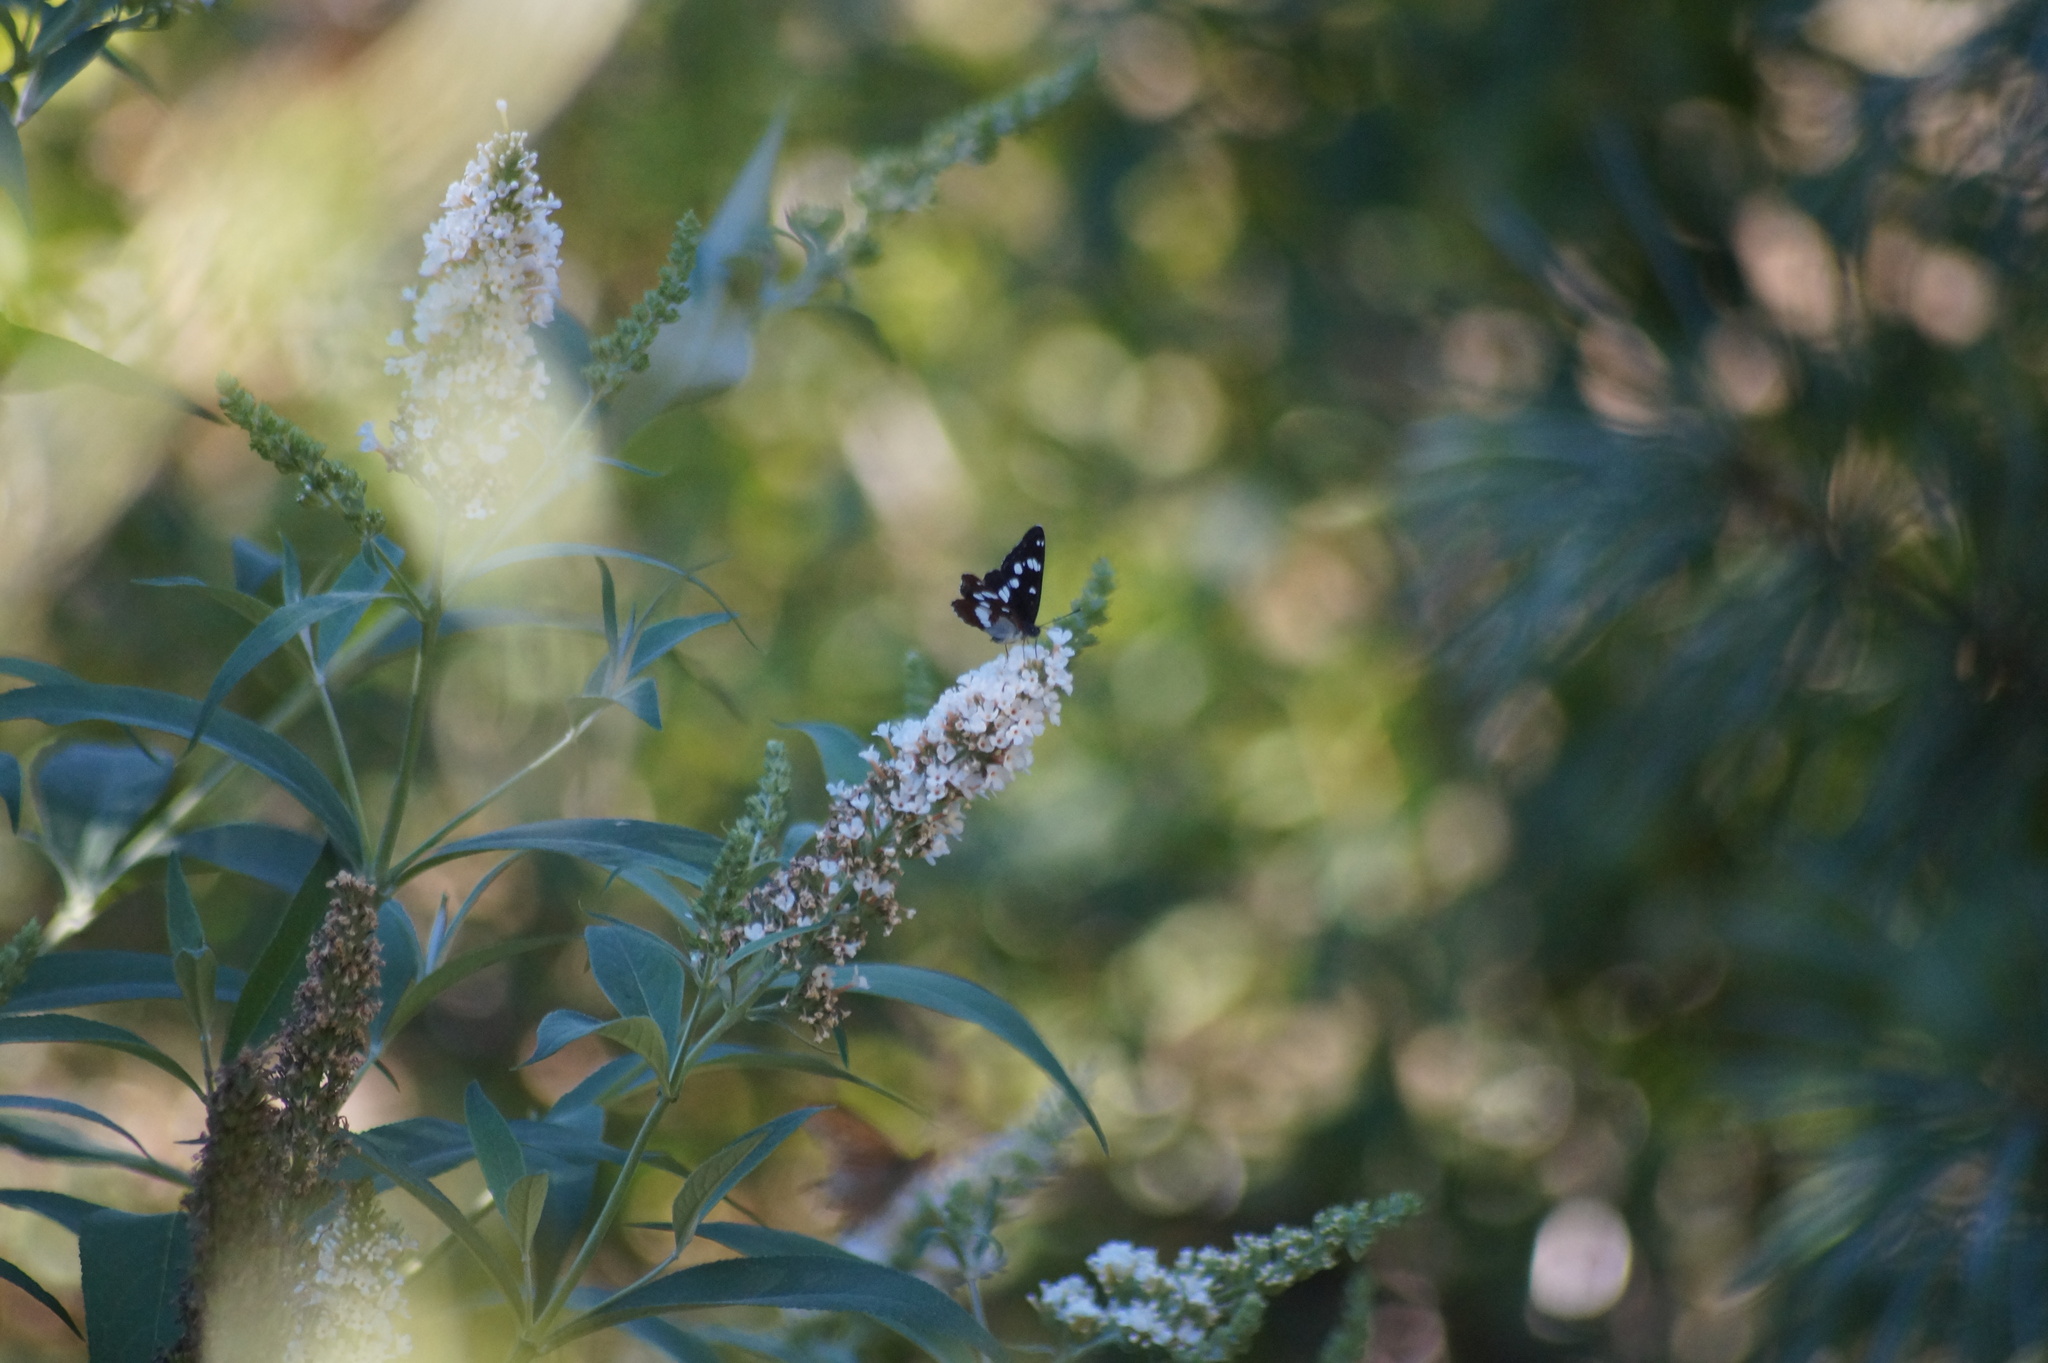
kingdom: Animalia
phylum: Arthropoda
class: Insecta
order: Lepidoptera
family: Nymphalidae
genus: Limenitis
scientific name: Limenitis reducta
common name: Southern white admiral
